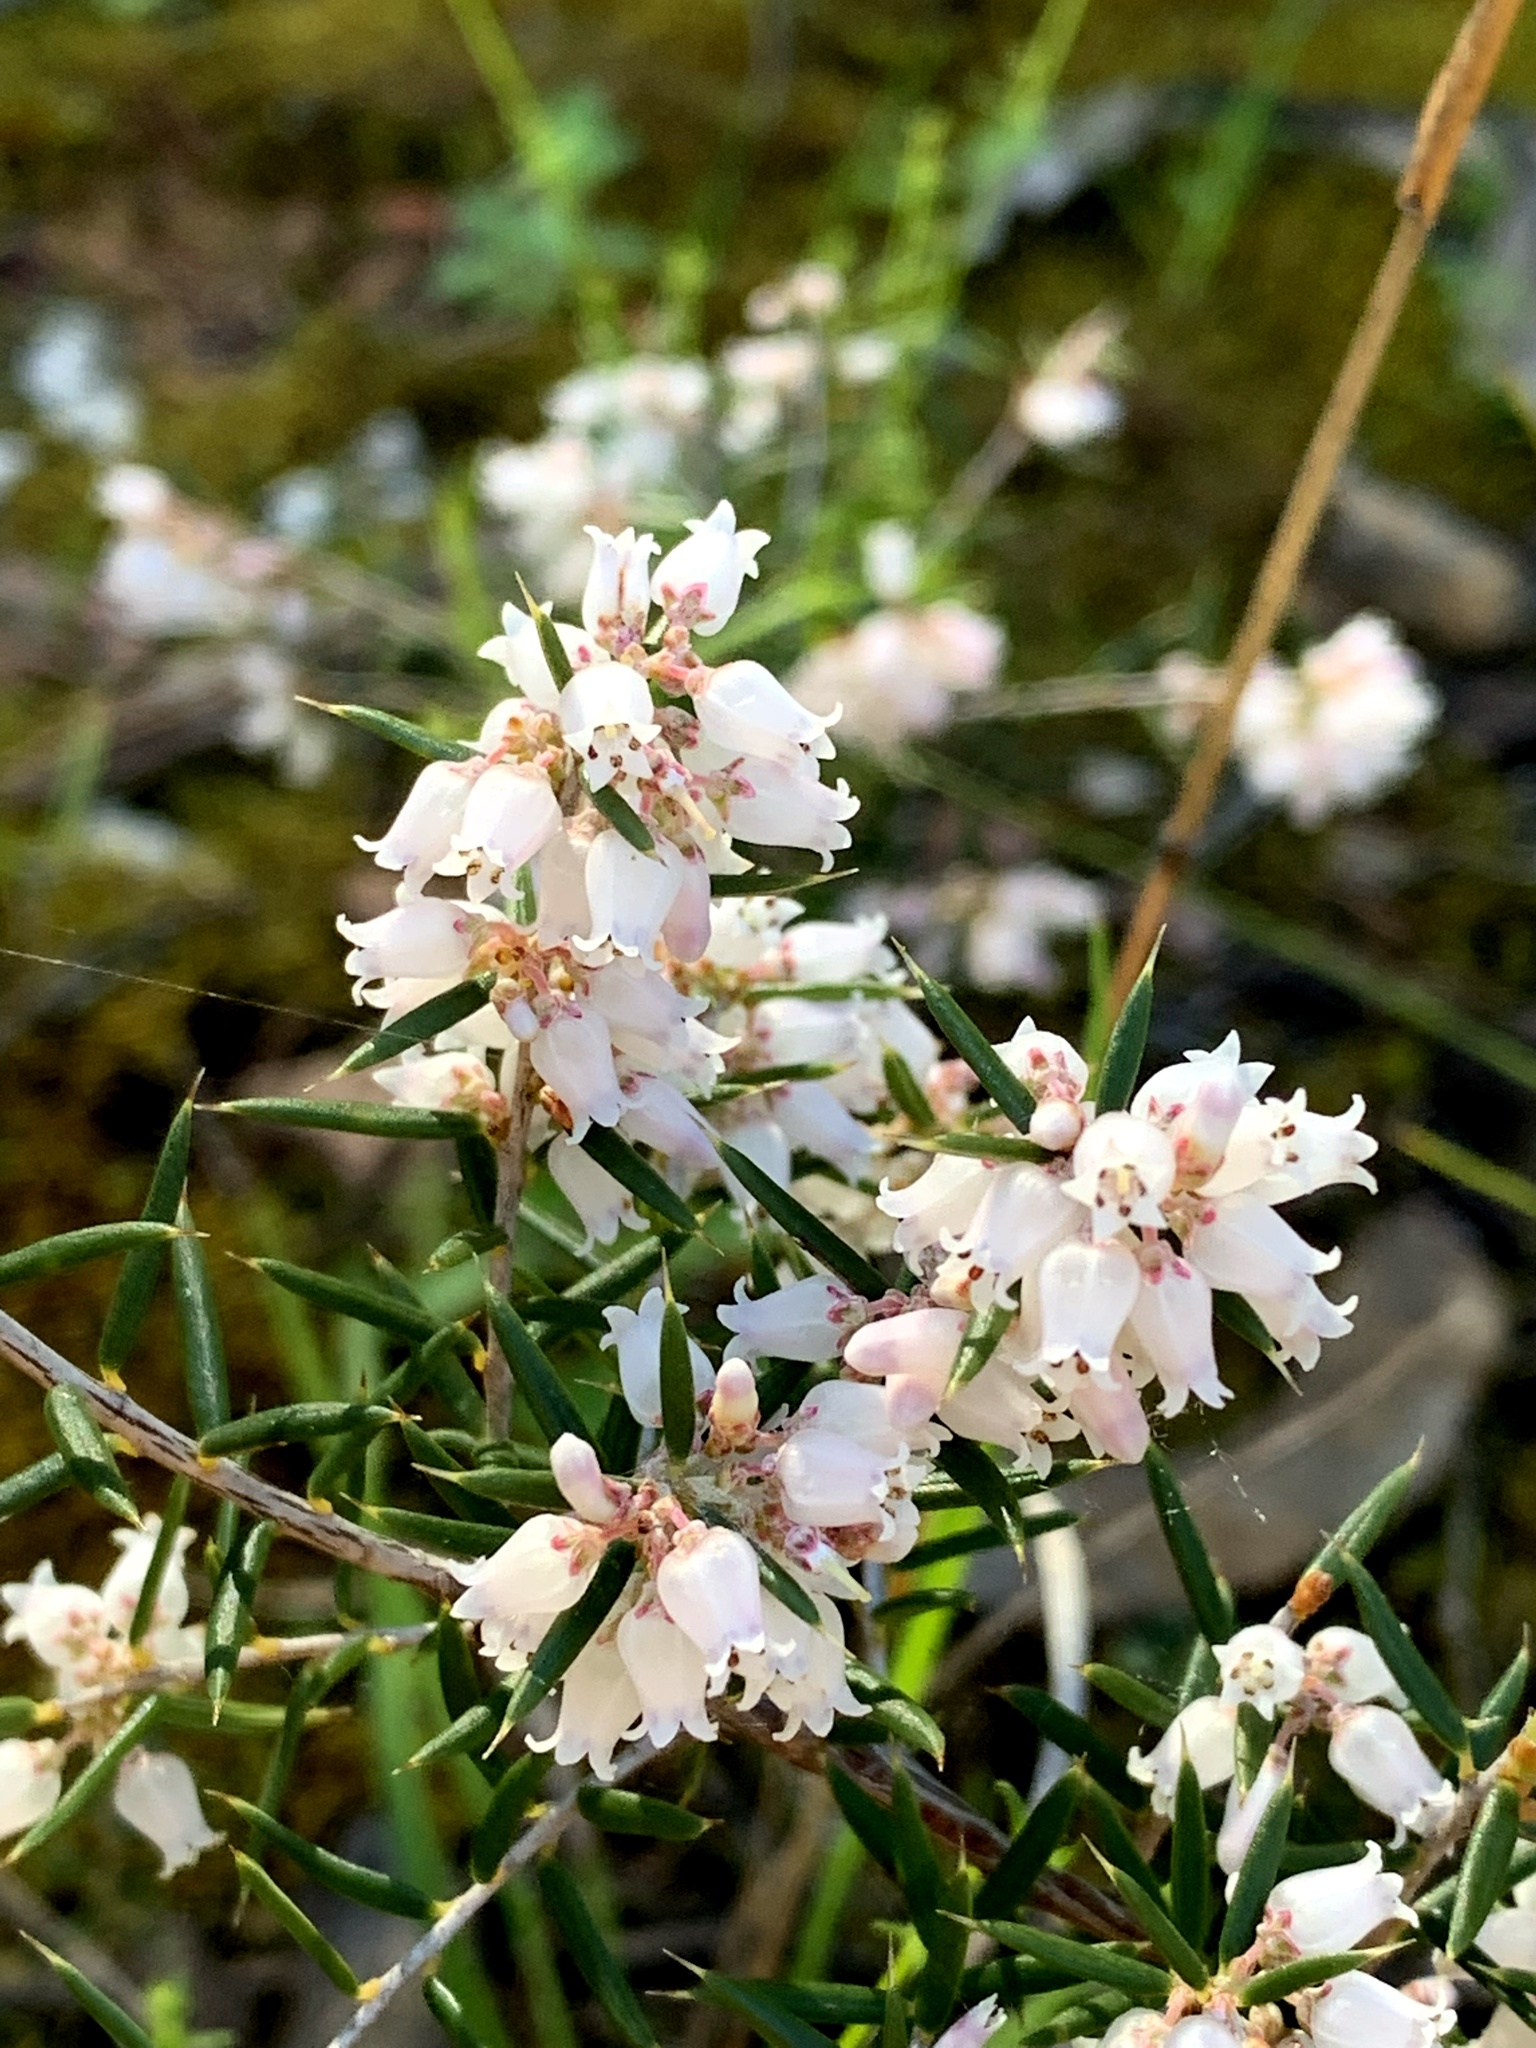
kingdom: Plantae
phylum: Tracheophyta
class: Magnoliopsida
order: Ericales
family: Ericaceae
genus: Lissanthe
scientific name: Lissanthe strigosa
